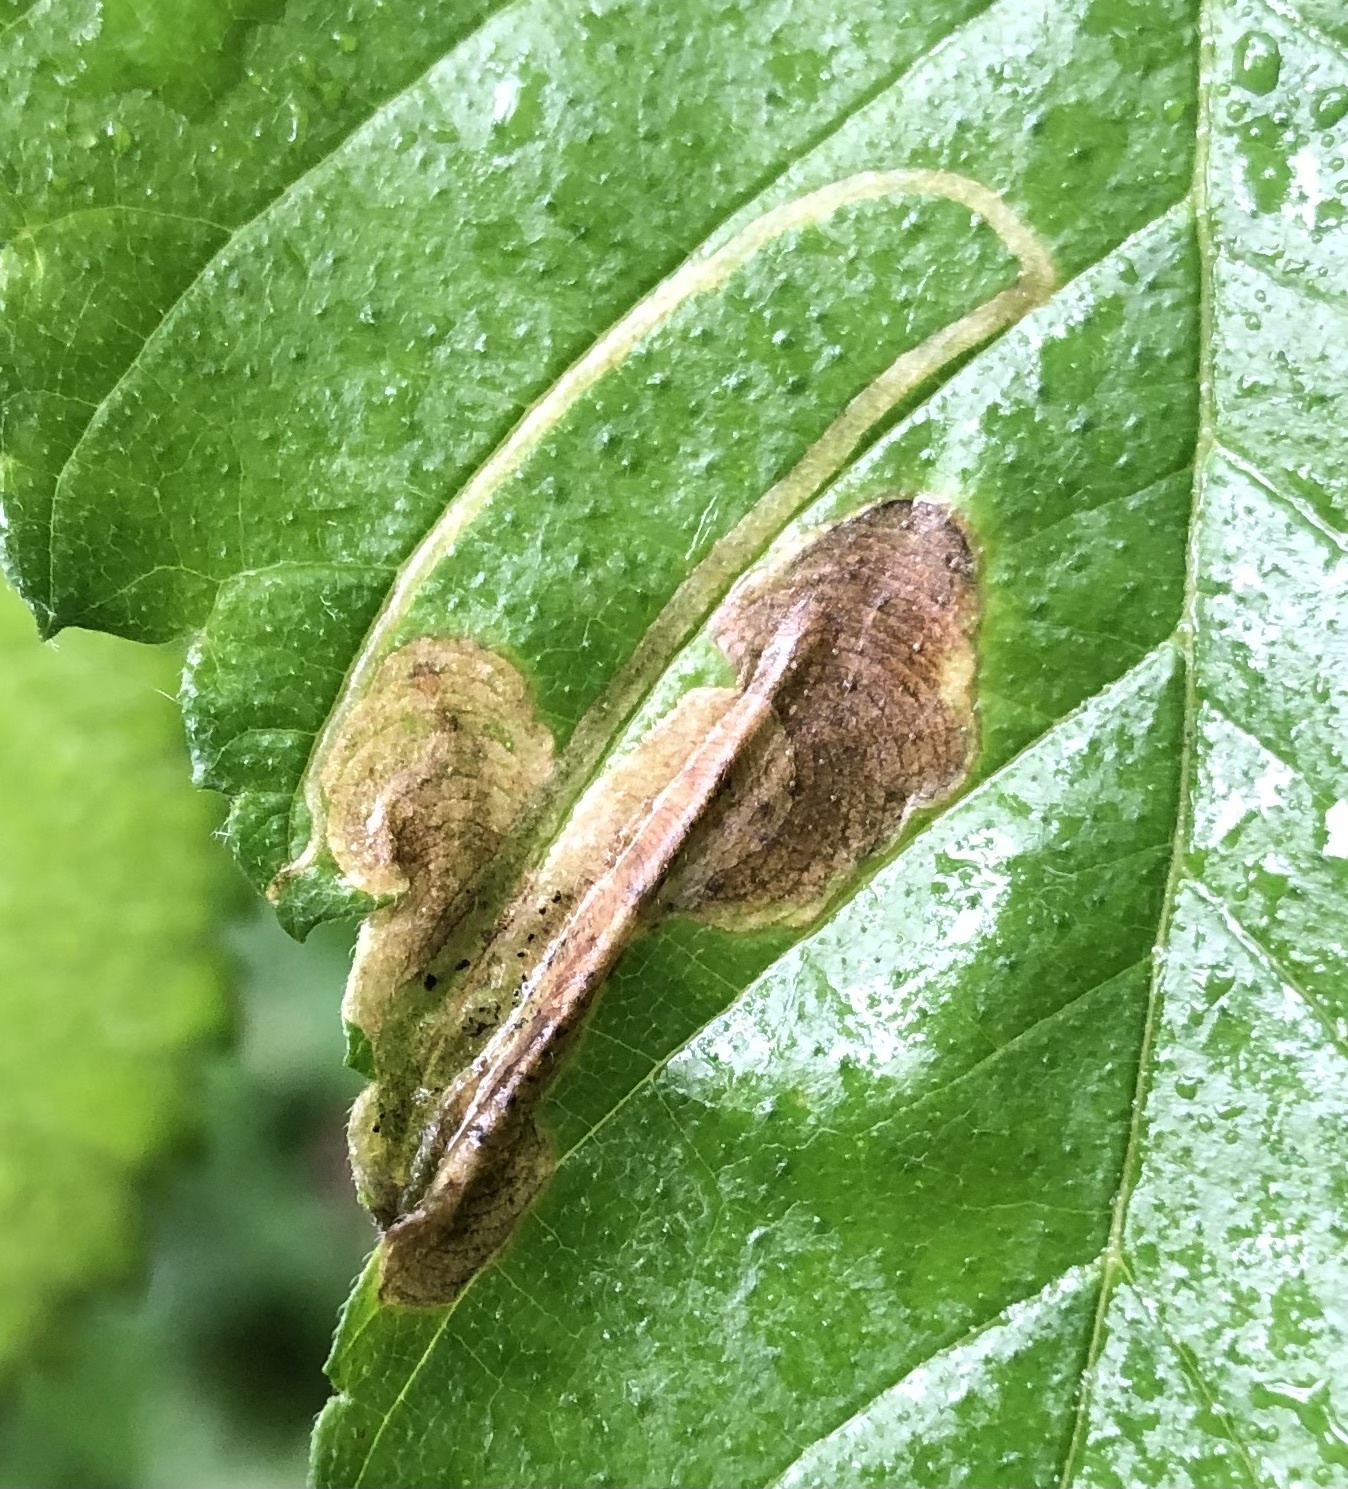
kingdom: Animalia
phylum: Arthropoda
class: Insecta
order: Diptera
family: Agromyzidae
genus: Agromyza
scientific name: Agromyza aristata
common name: Elm agromyzid leafminer
